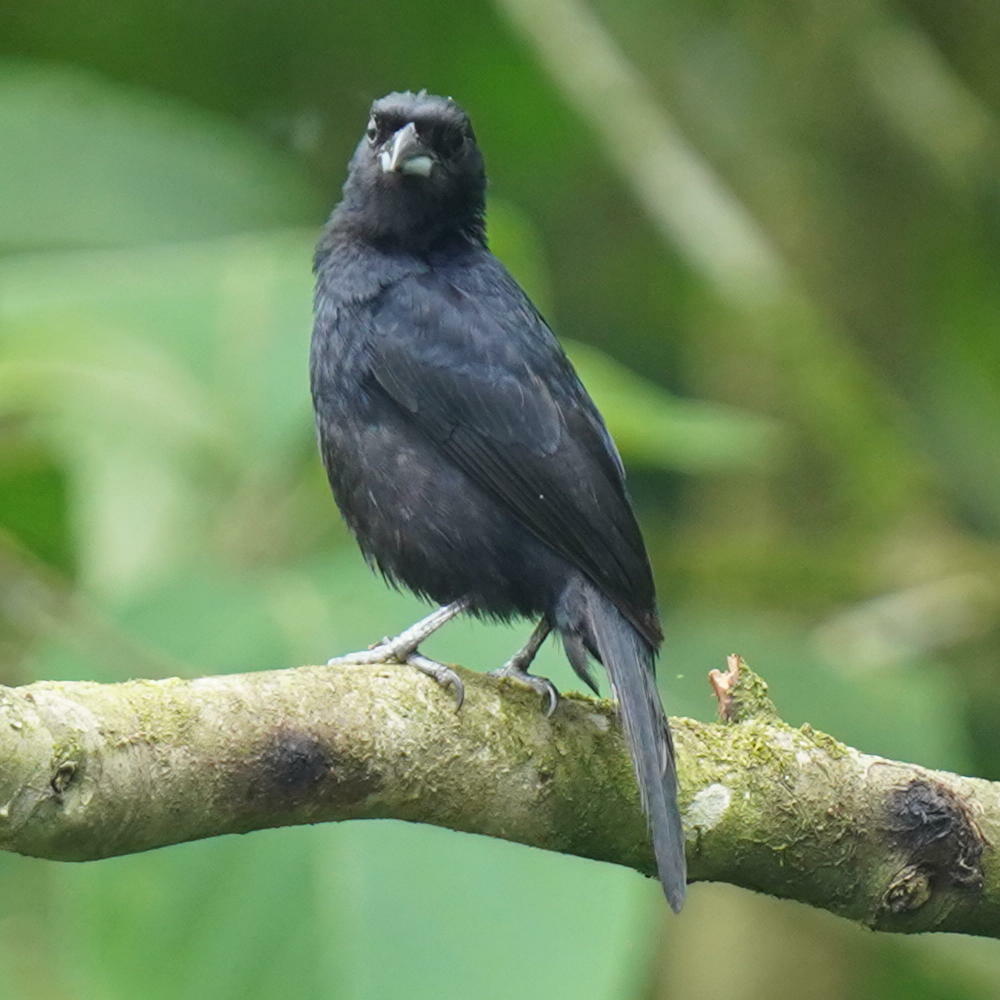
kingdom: Animalia
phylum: Chordata
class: Aves
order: Passeriformes
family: Thraupidae
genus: Tachyphonus
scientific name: Tachyphonus rufus
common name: White-lined tanager
